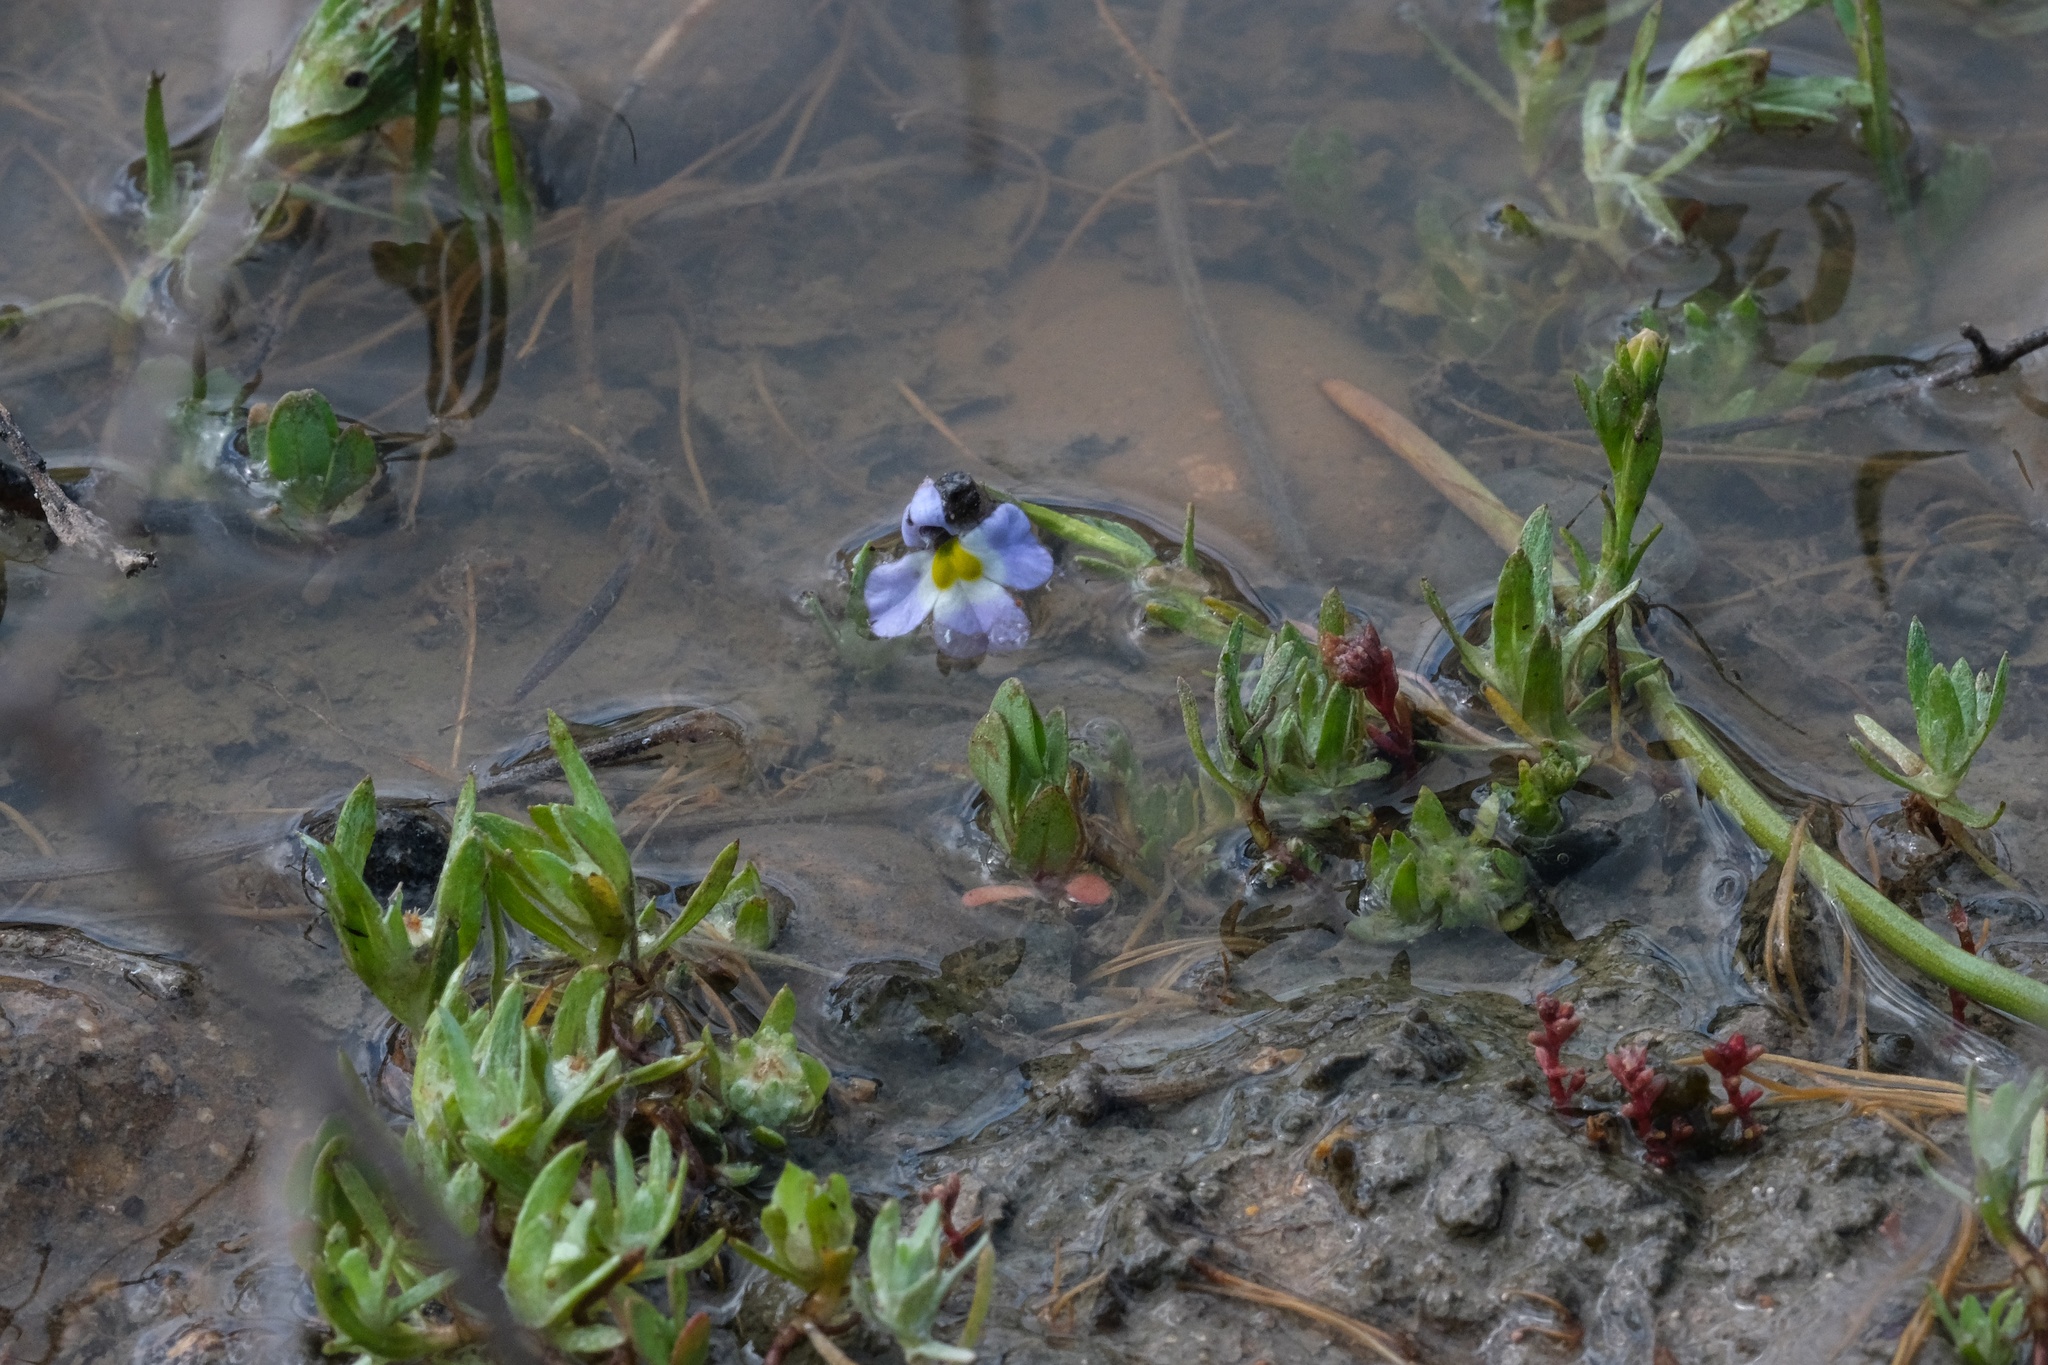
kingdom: Plantae
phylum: Tracheophyta
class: Magnoliopsida
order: Asterales
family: Campanulaceae
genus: Downingia
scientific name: Downingia cuspidata
